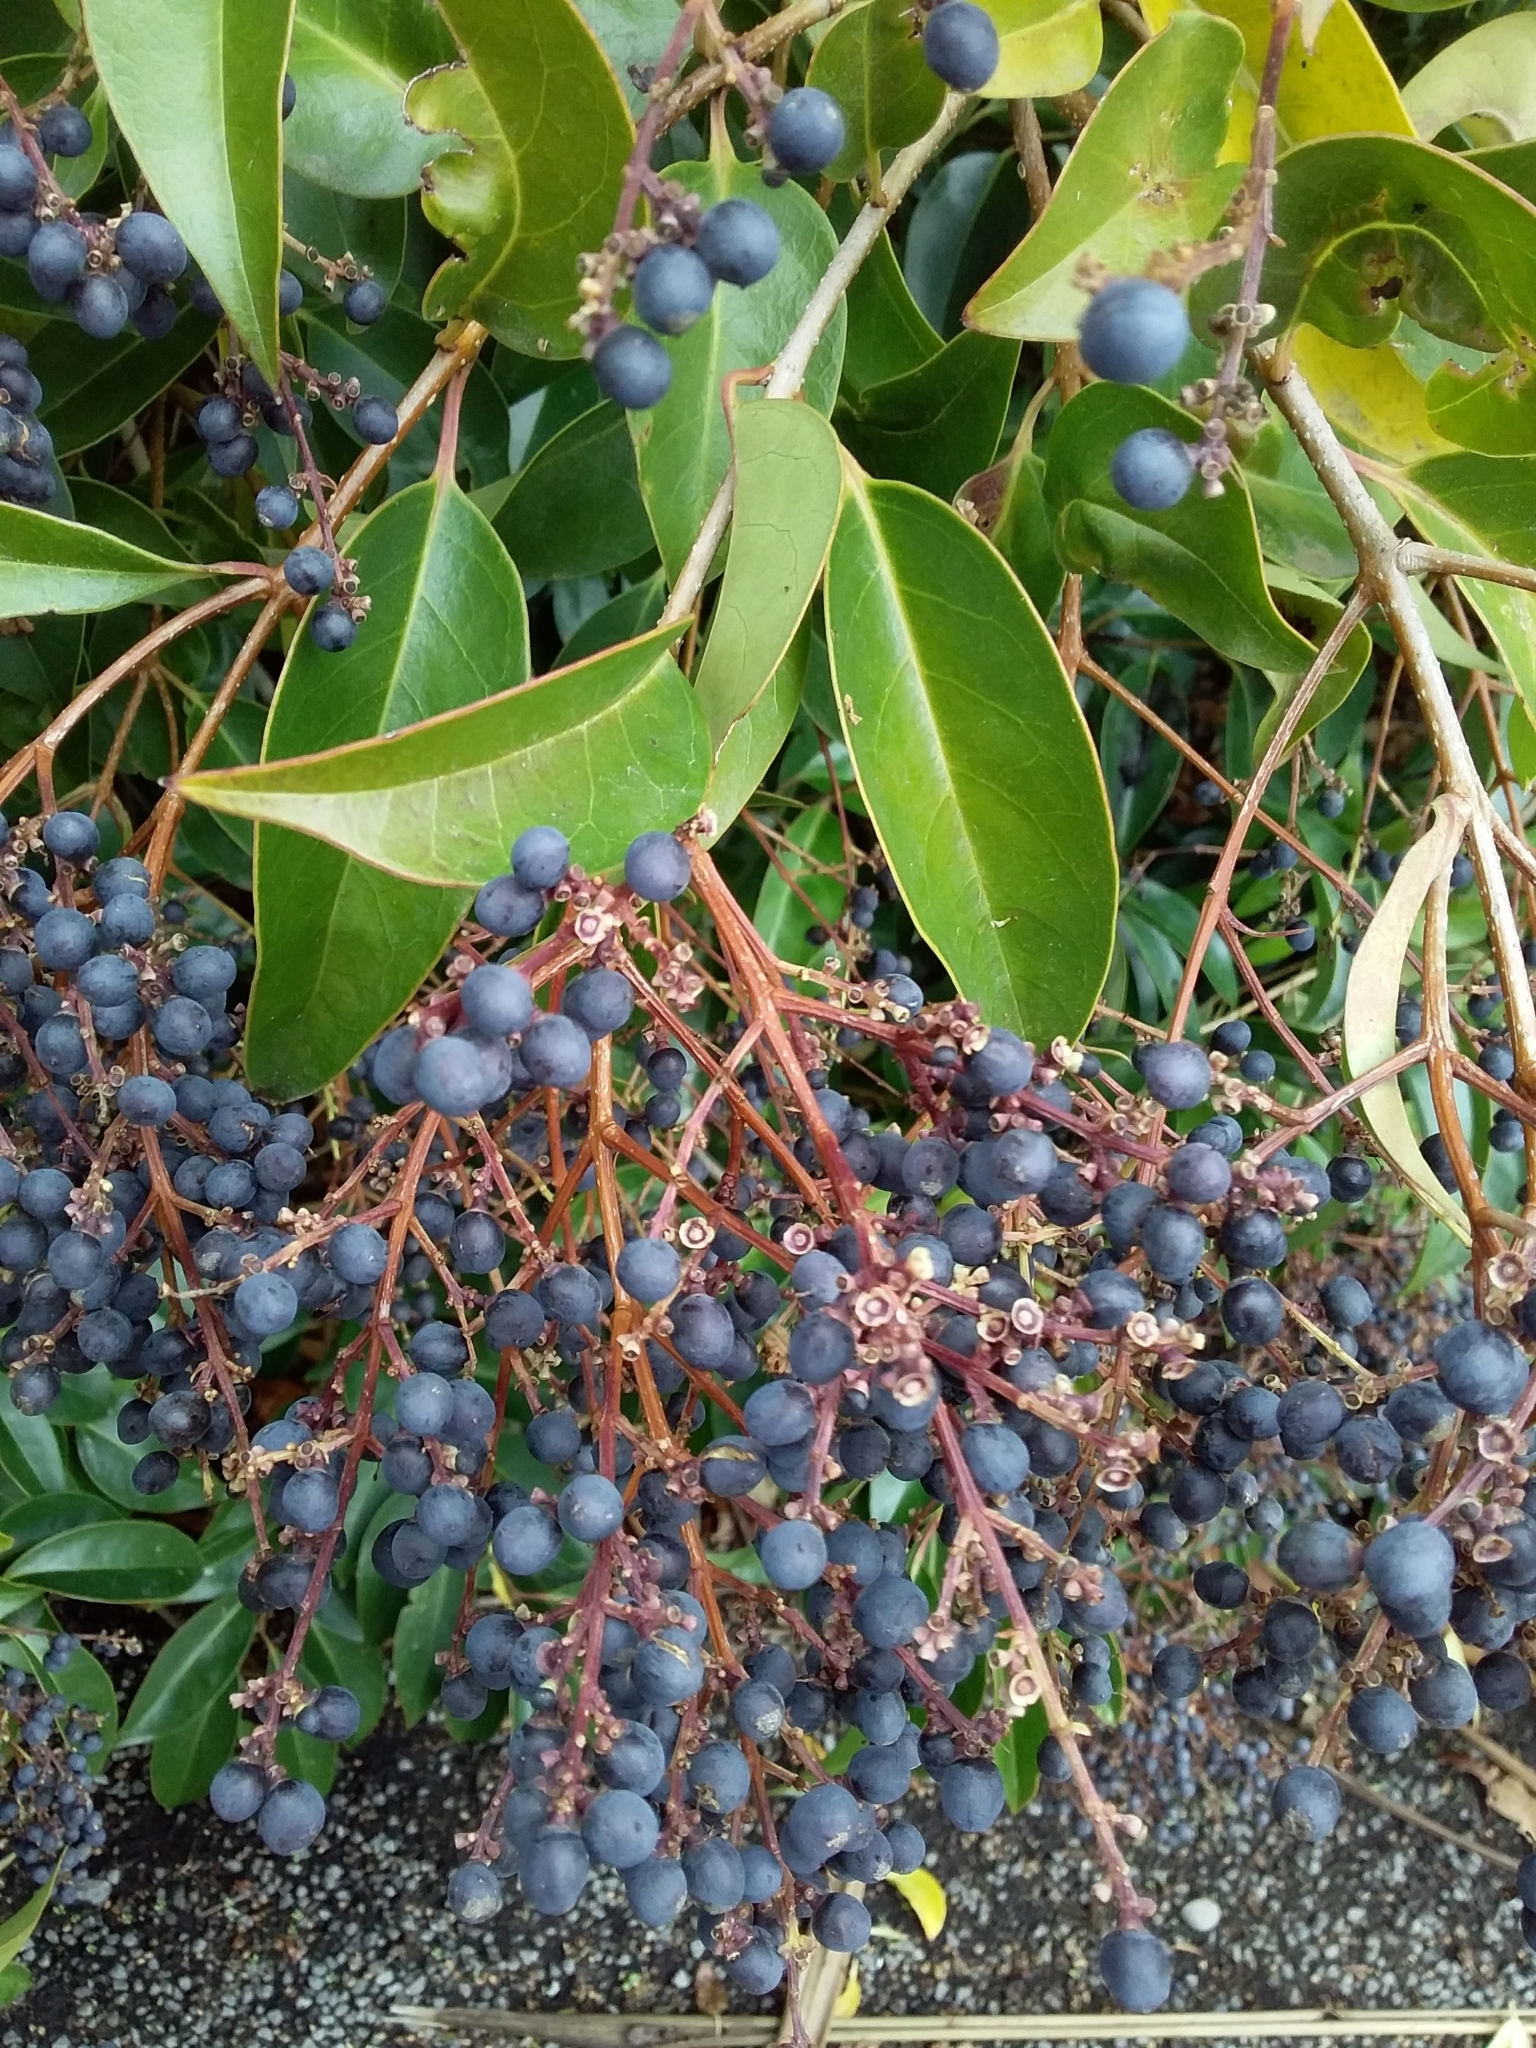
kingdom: Plantae
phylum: Tracheophyta
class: Magnoliopsida
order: Lamiales
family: Oleaceae
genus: Ligustrum
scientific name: Ligustrum lucidum
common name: Glossy privet
